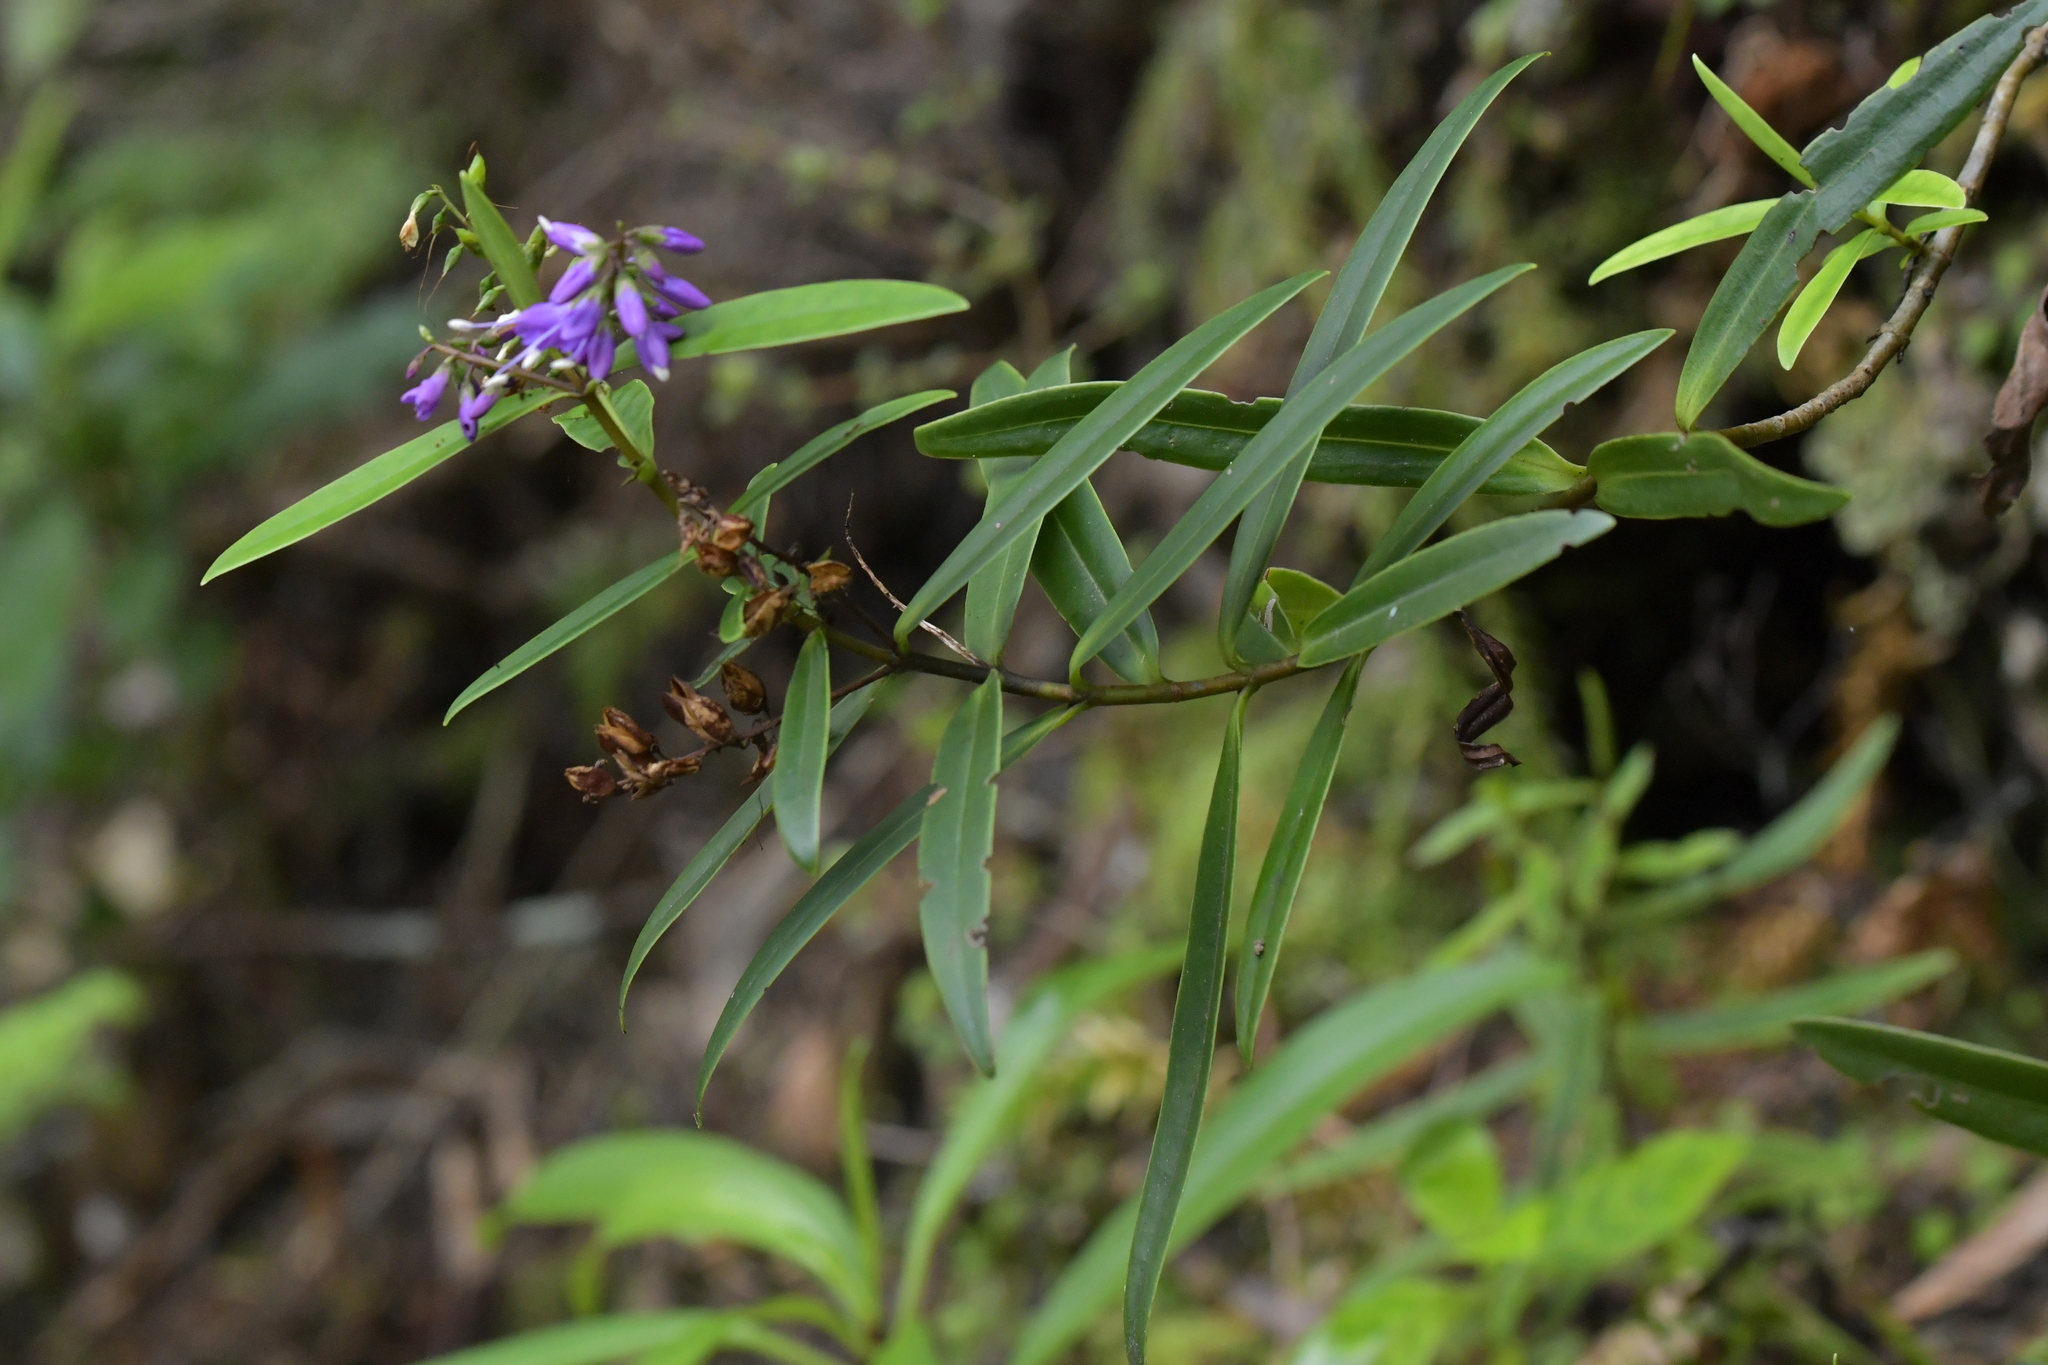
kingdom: Plantae
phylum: Tracheophyta
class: Magnoliopsida
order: Lamiales
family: Plantaginaceae
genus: Veronica
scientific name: Veronica macrocarpa
